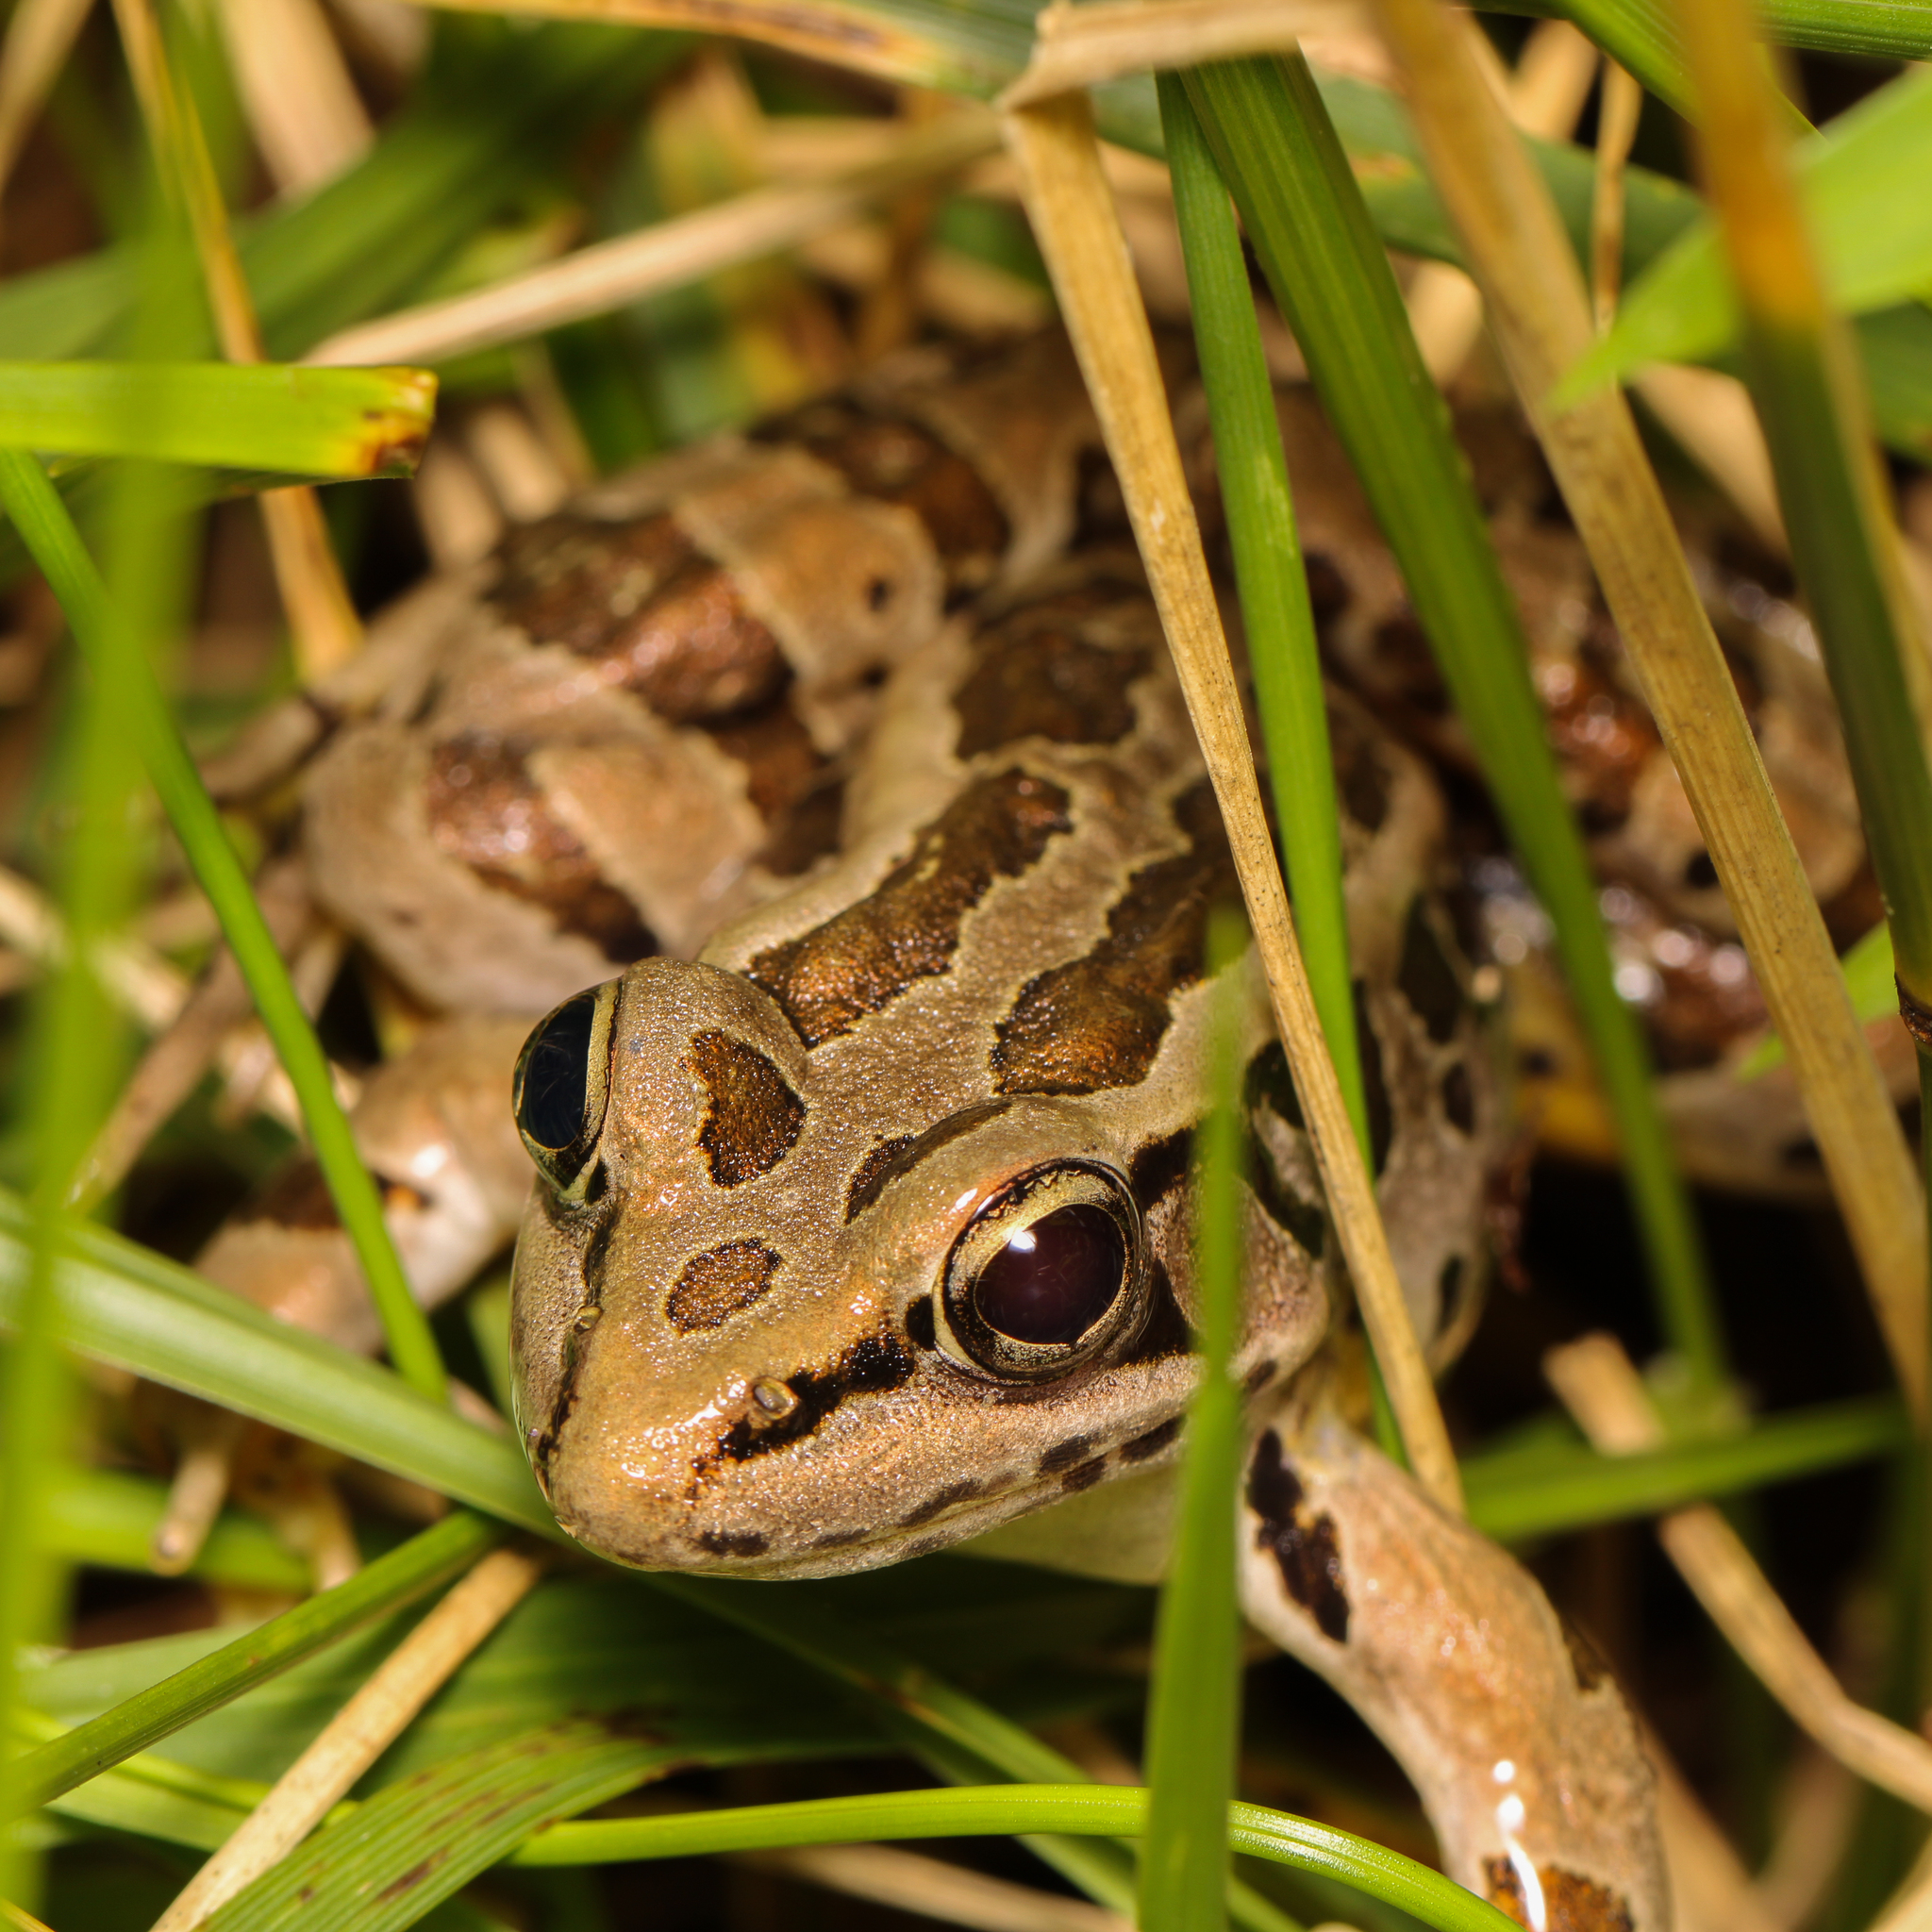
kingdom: Animalia
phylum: Chordata
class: Amphibia
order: Anura
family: Ranidae
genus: Lithobates
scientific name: Lithobates palustris
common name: Pickerel frog
